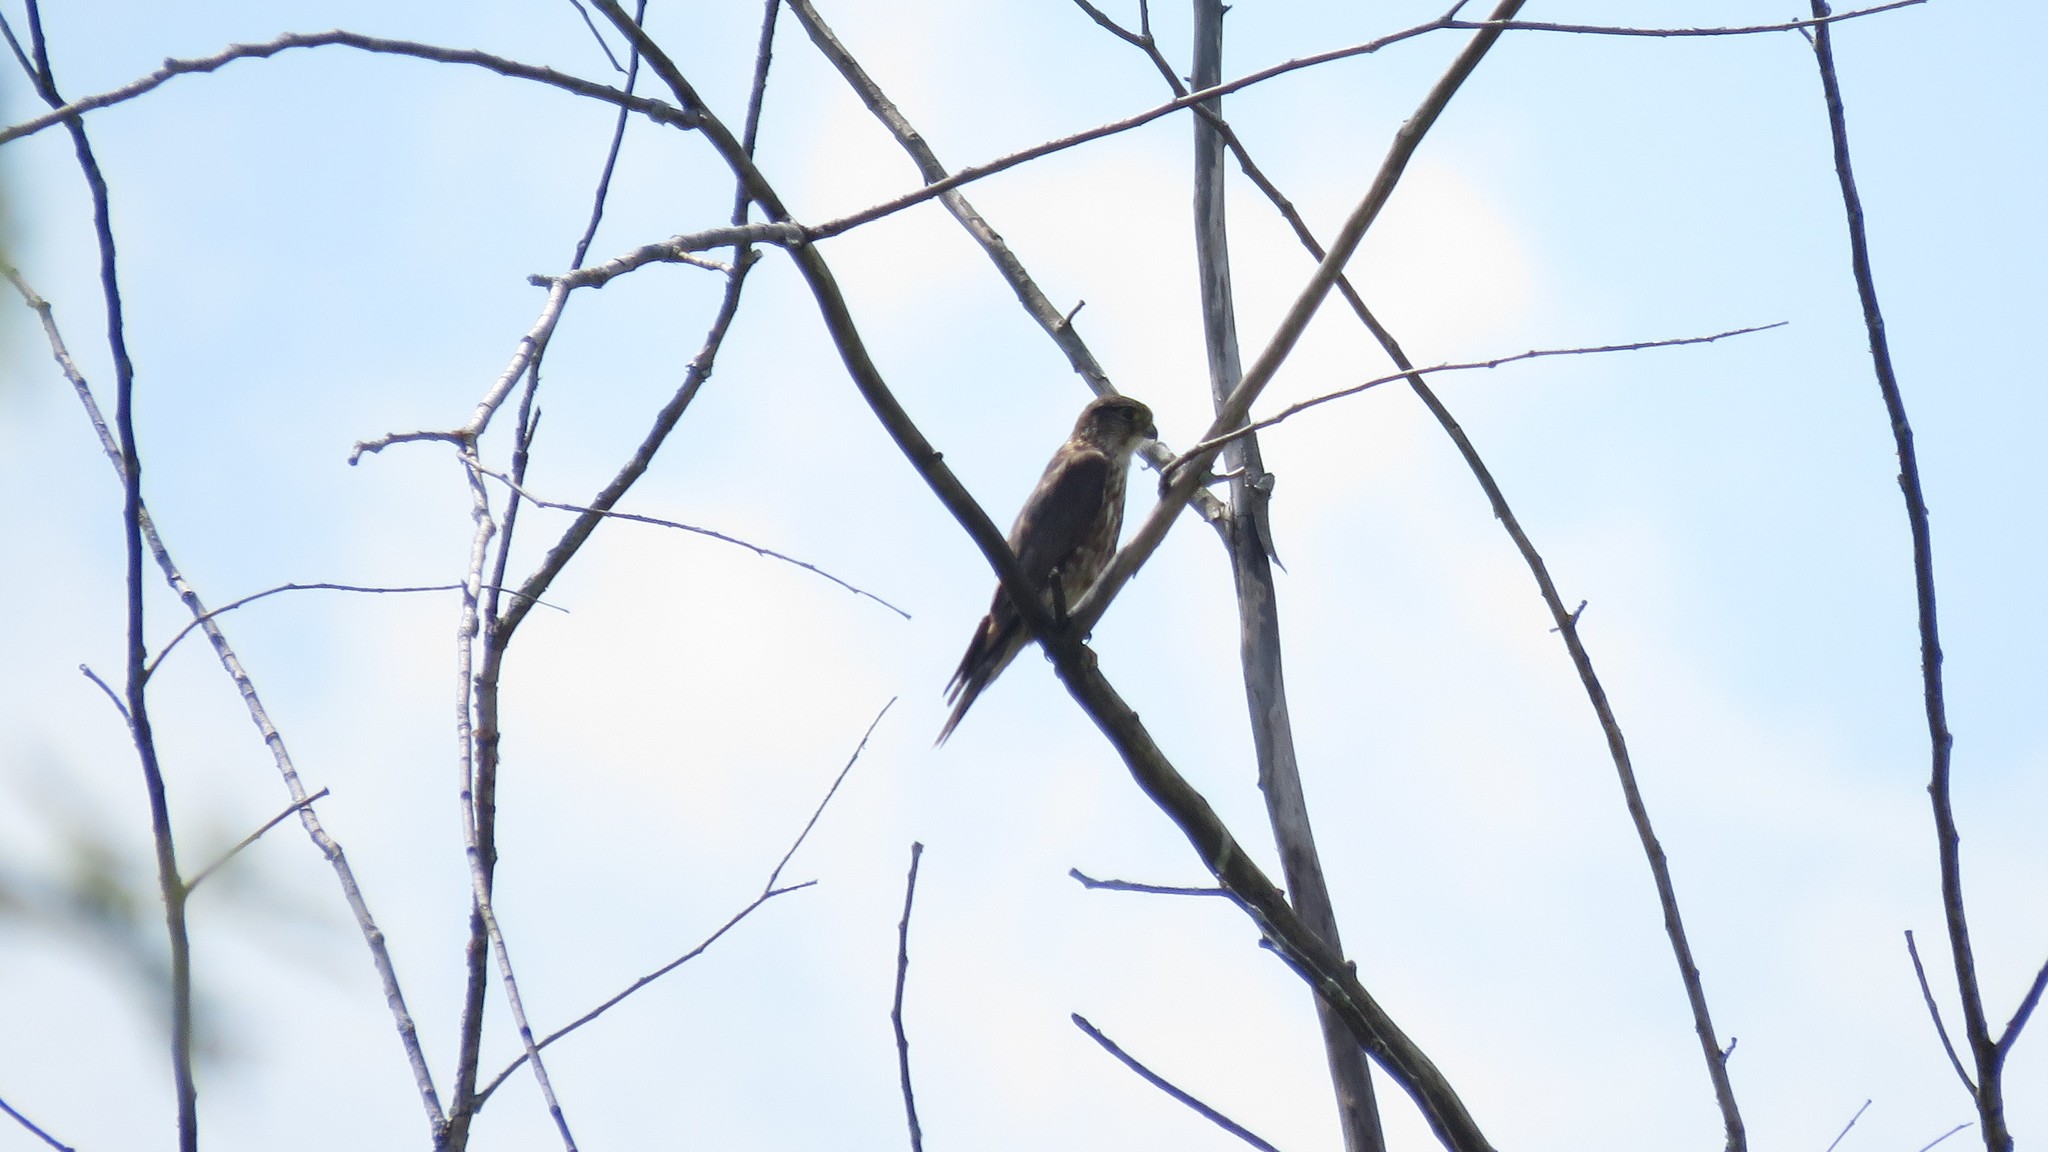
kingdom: Animalia
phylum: Chordata
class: Aves
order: Falconiformes
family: Falconidae
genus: Falco
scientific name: Falco columbarius
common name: Merlin
